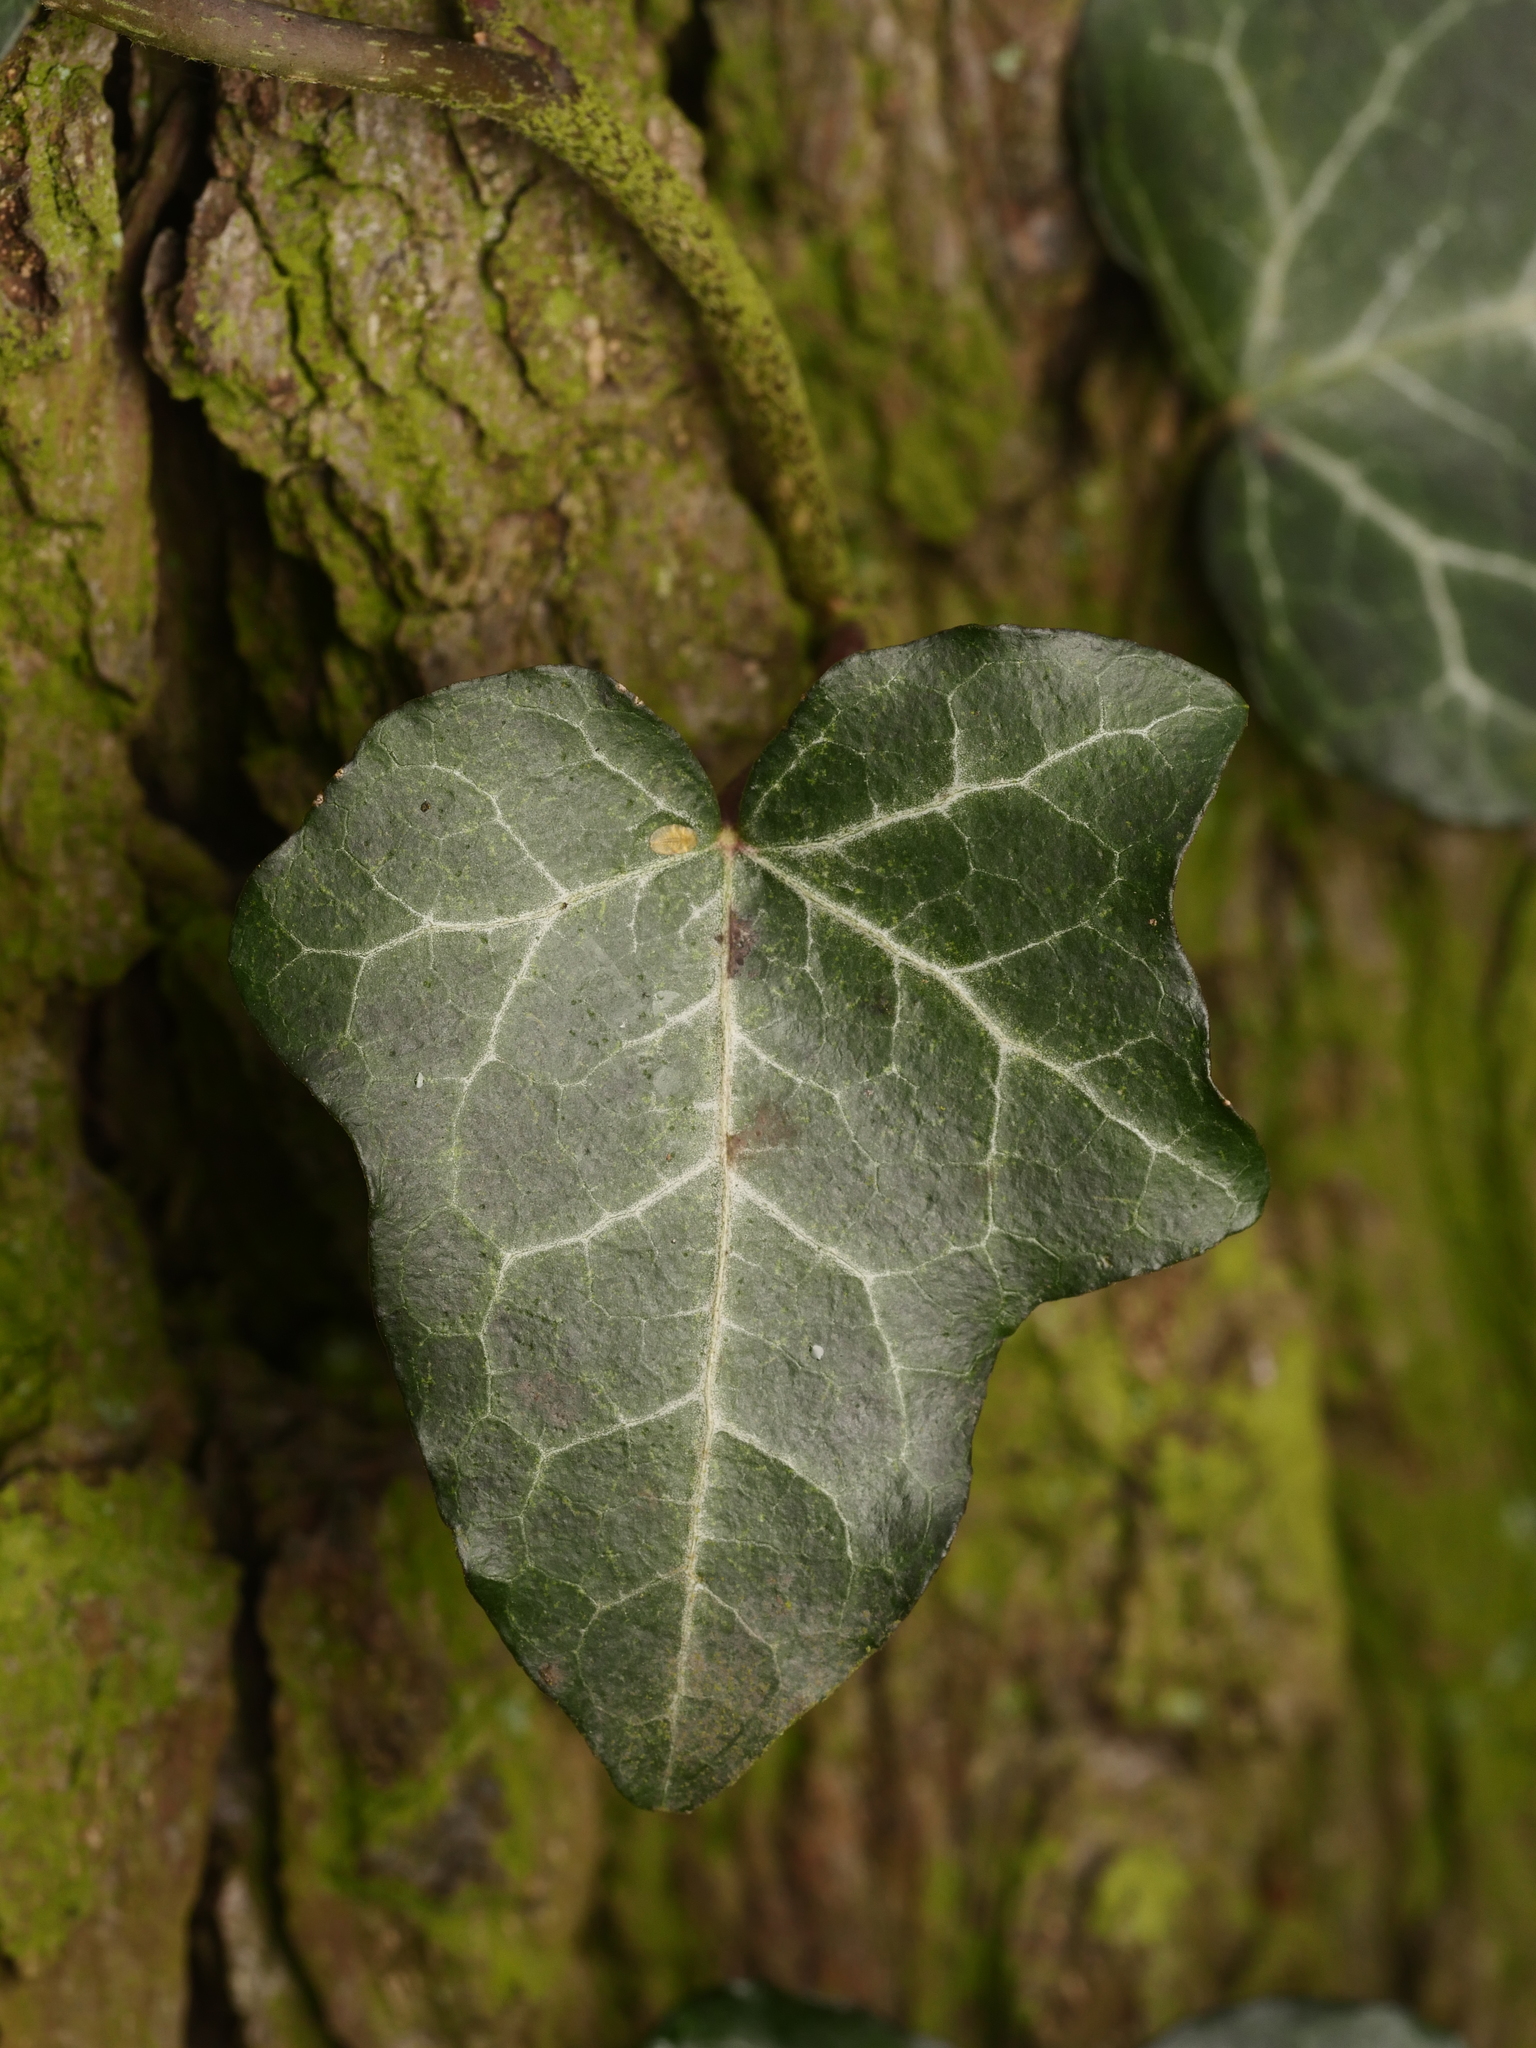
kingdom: Plantae
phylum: Tracheophyta
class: Magnoliopsida
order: Apiales
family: Araliaceae
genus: Hedera
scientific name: Hedera helix
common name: Ivy
